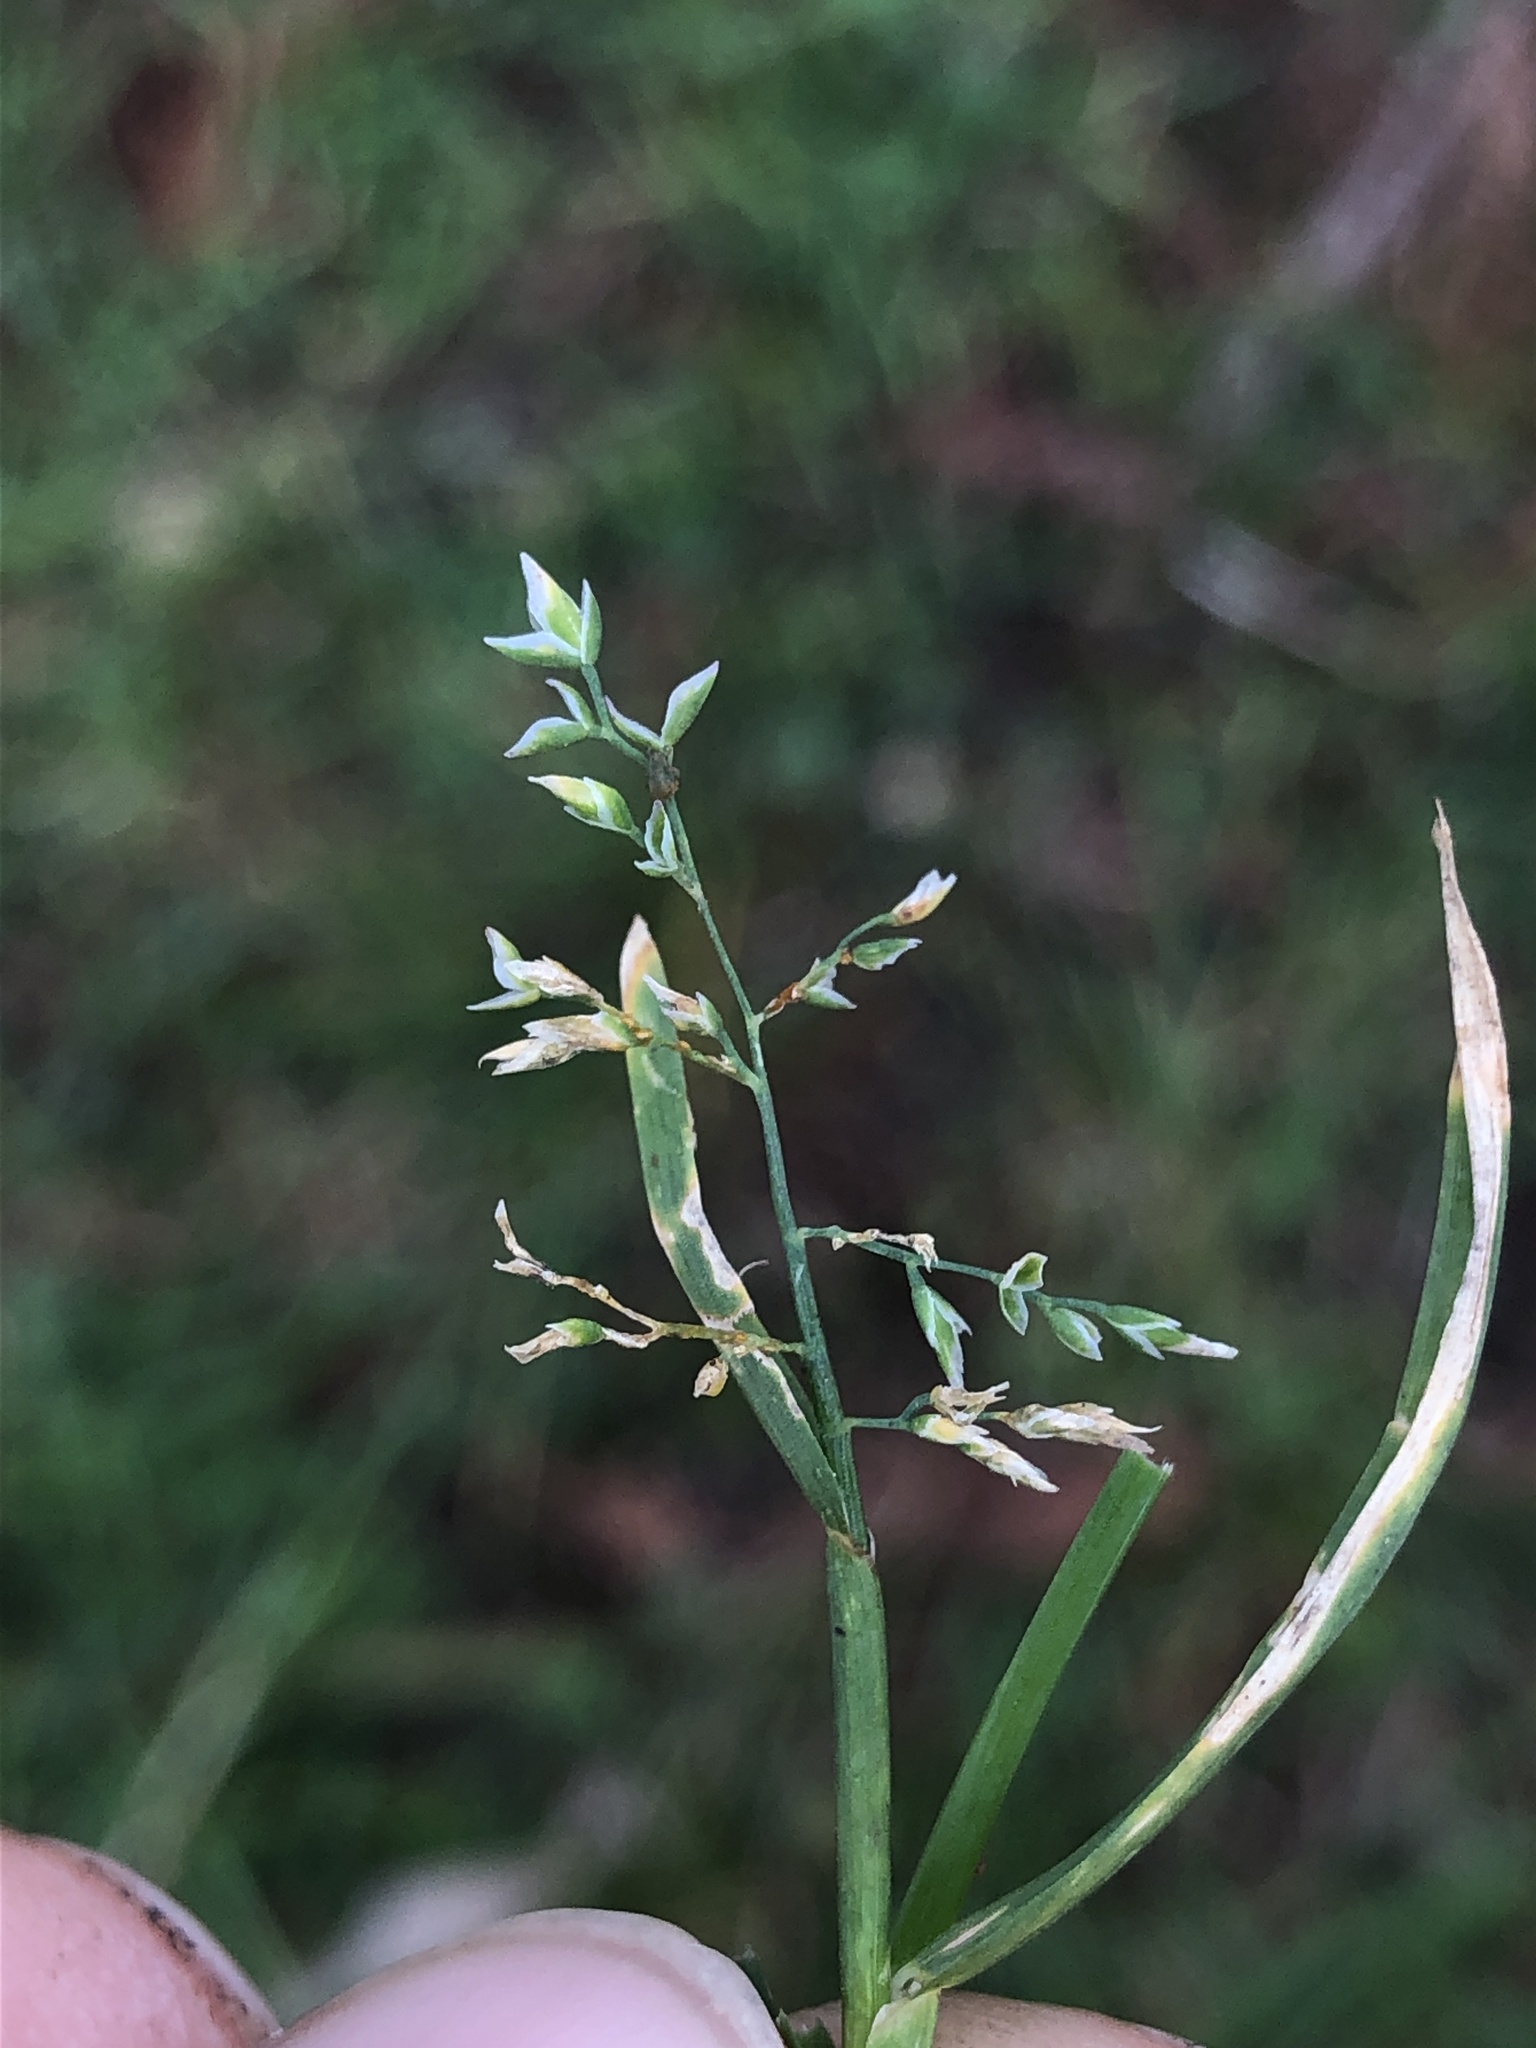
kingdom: Plantae
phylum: Tracheophyta
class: Liliopsida
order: Poales
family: Poaceae
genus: Poa
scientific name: Poa annua
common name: Annual bluegrass
